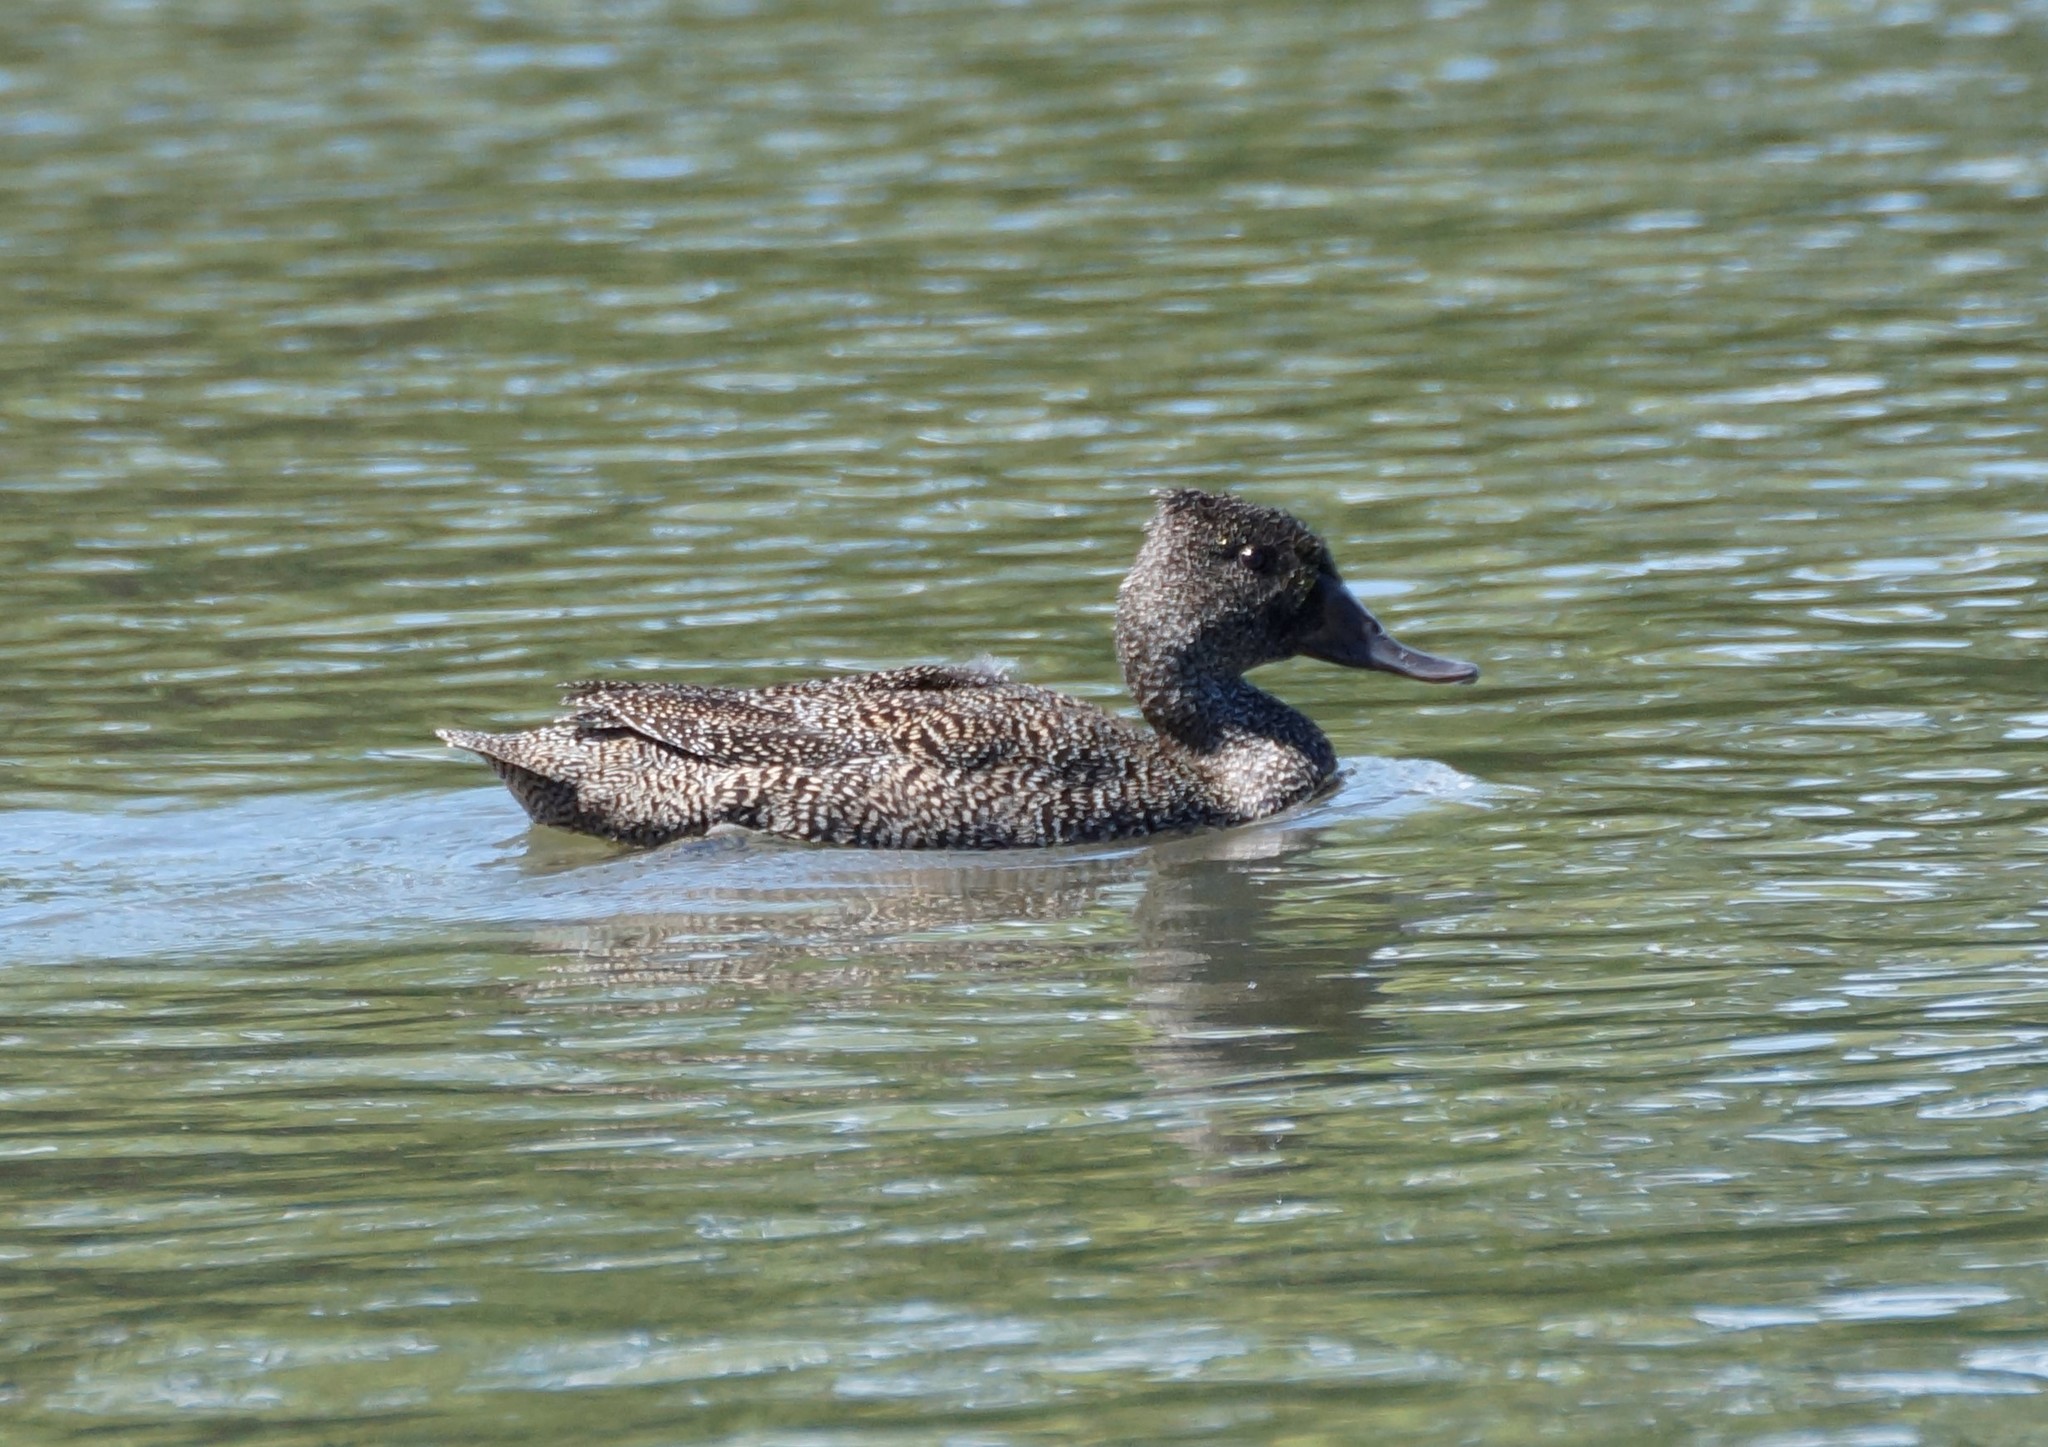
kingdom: Animalia
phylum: Chordata
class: Aves
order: Anseriformes
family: Anatidae
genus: Stictonetta
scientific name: Stictonetta naevosa
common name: Freckled duck
